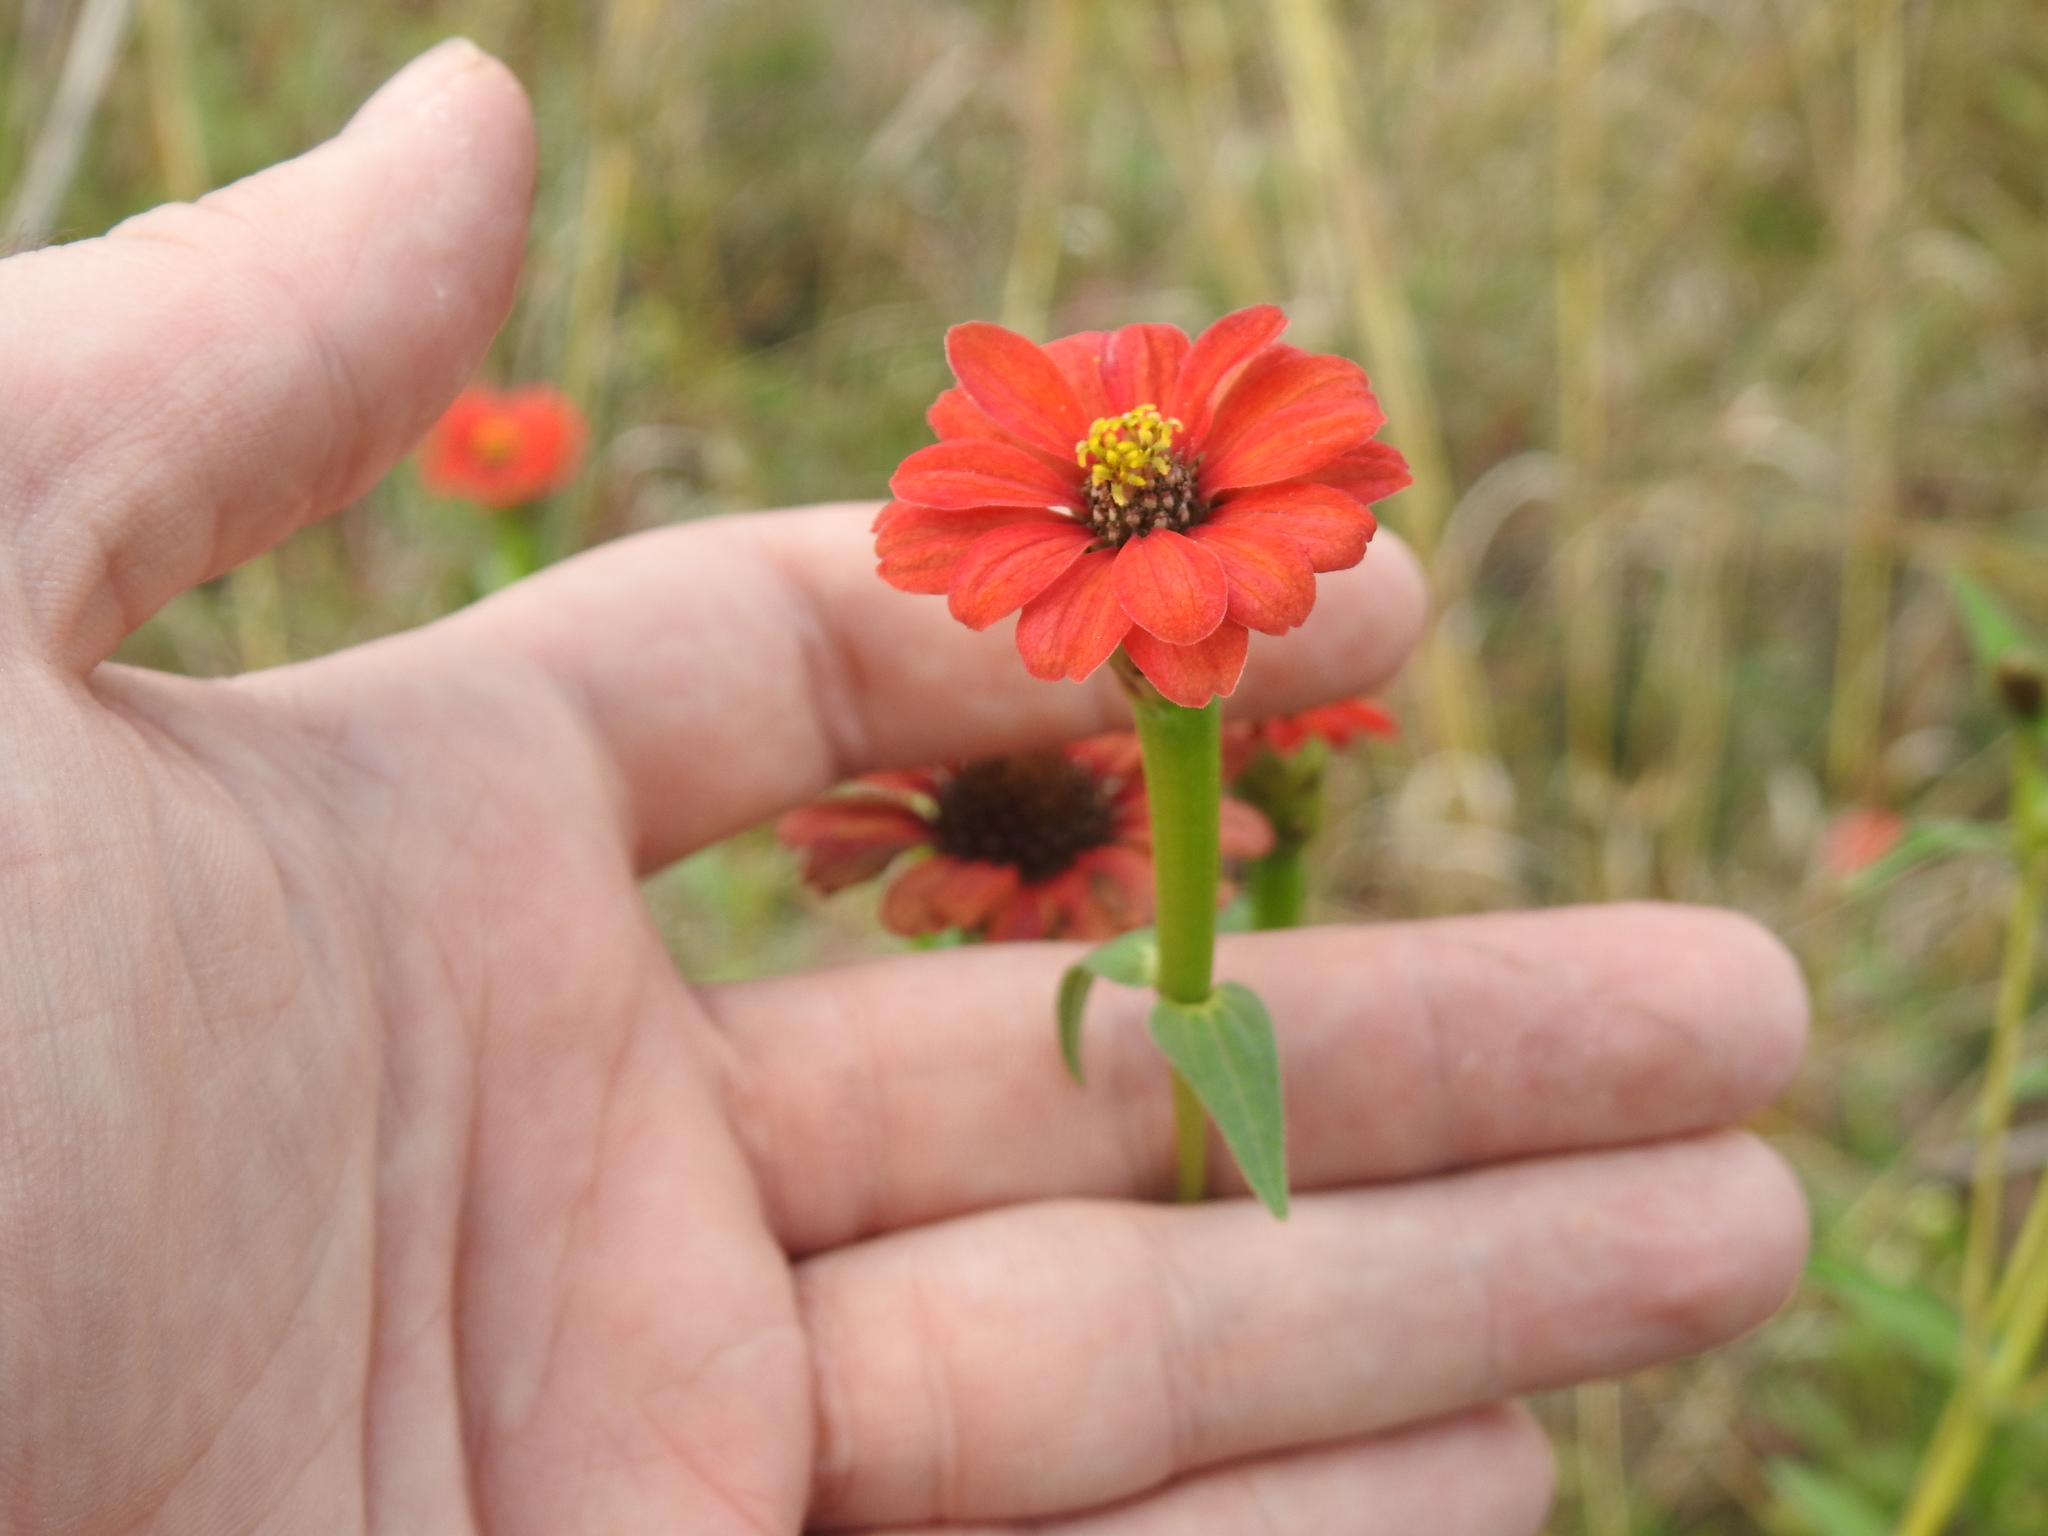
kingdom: Plantae
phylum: Tracheophyta
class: Magnoliopsida
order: Asterales
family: Asteraceae
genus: Zinnia
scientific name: Zinnia peruviana
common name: Peruvian zinnia
